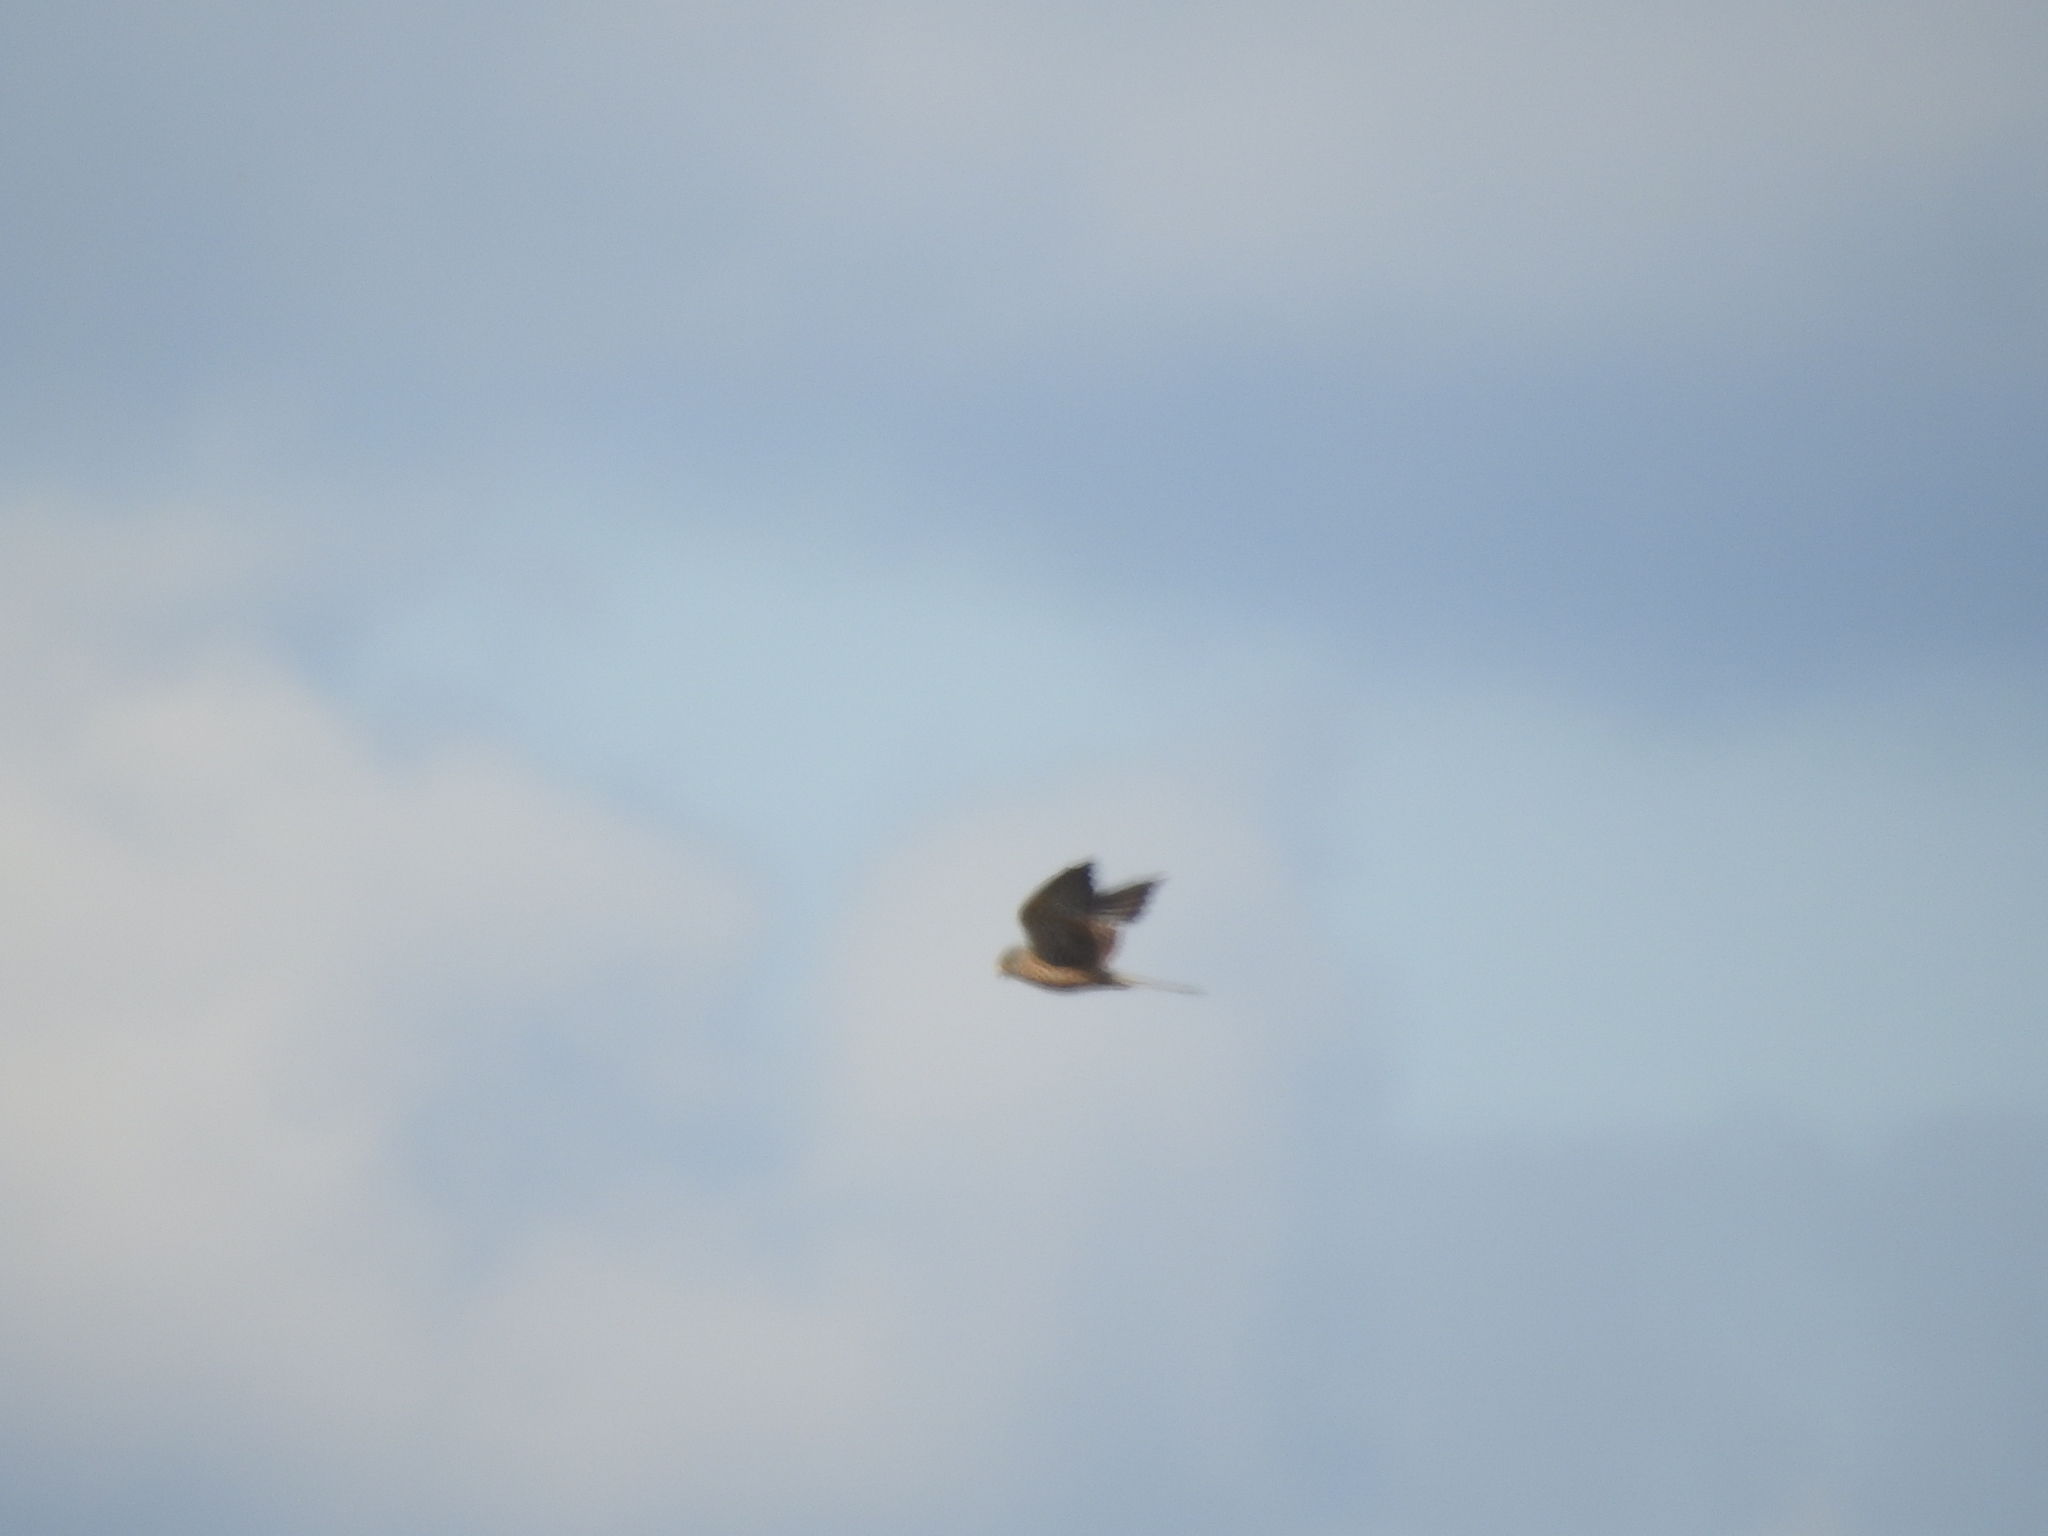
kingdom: Animalia
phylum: Chordata
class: Aves
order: Falconiformes
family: Falconidae
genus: Falco
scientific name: Falco tinnunculus
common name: Common kestrel
